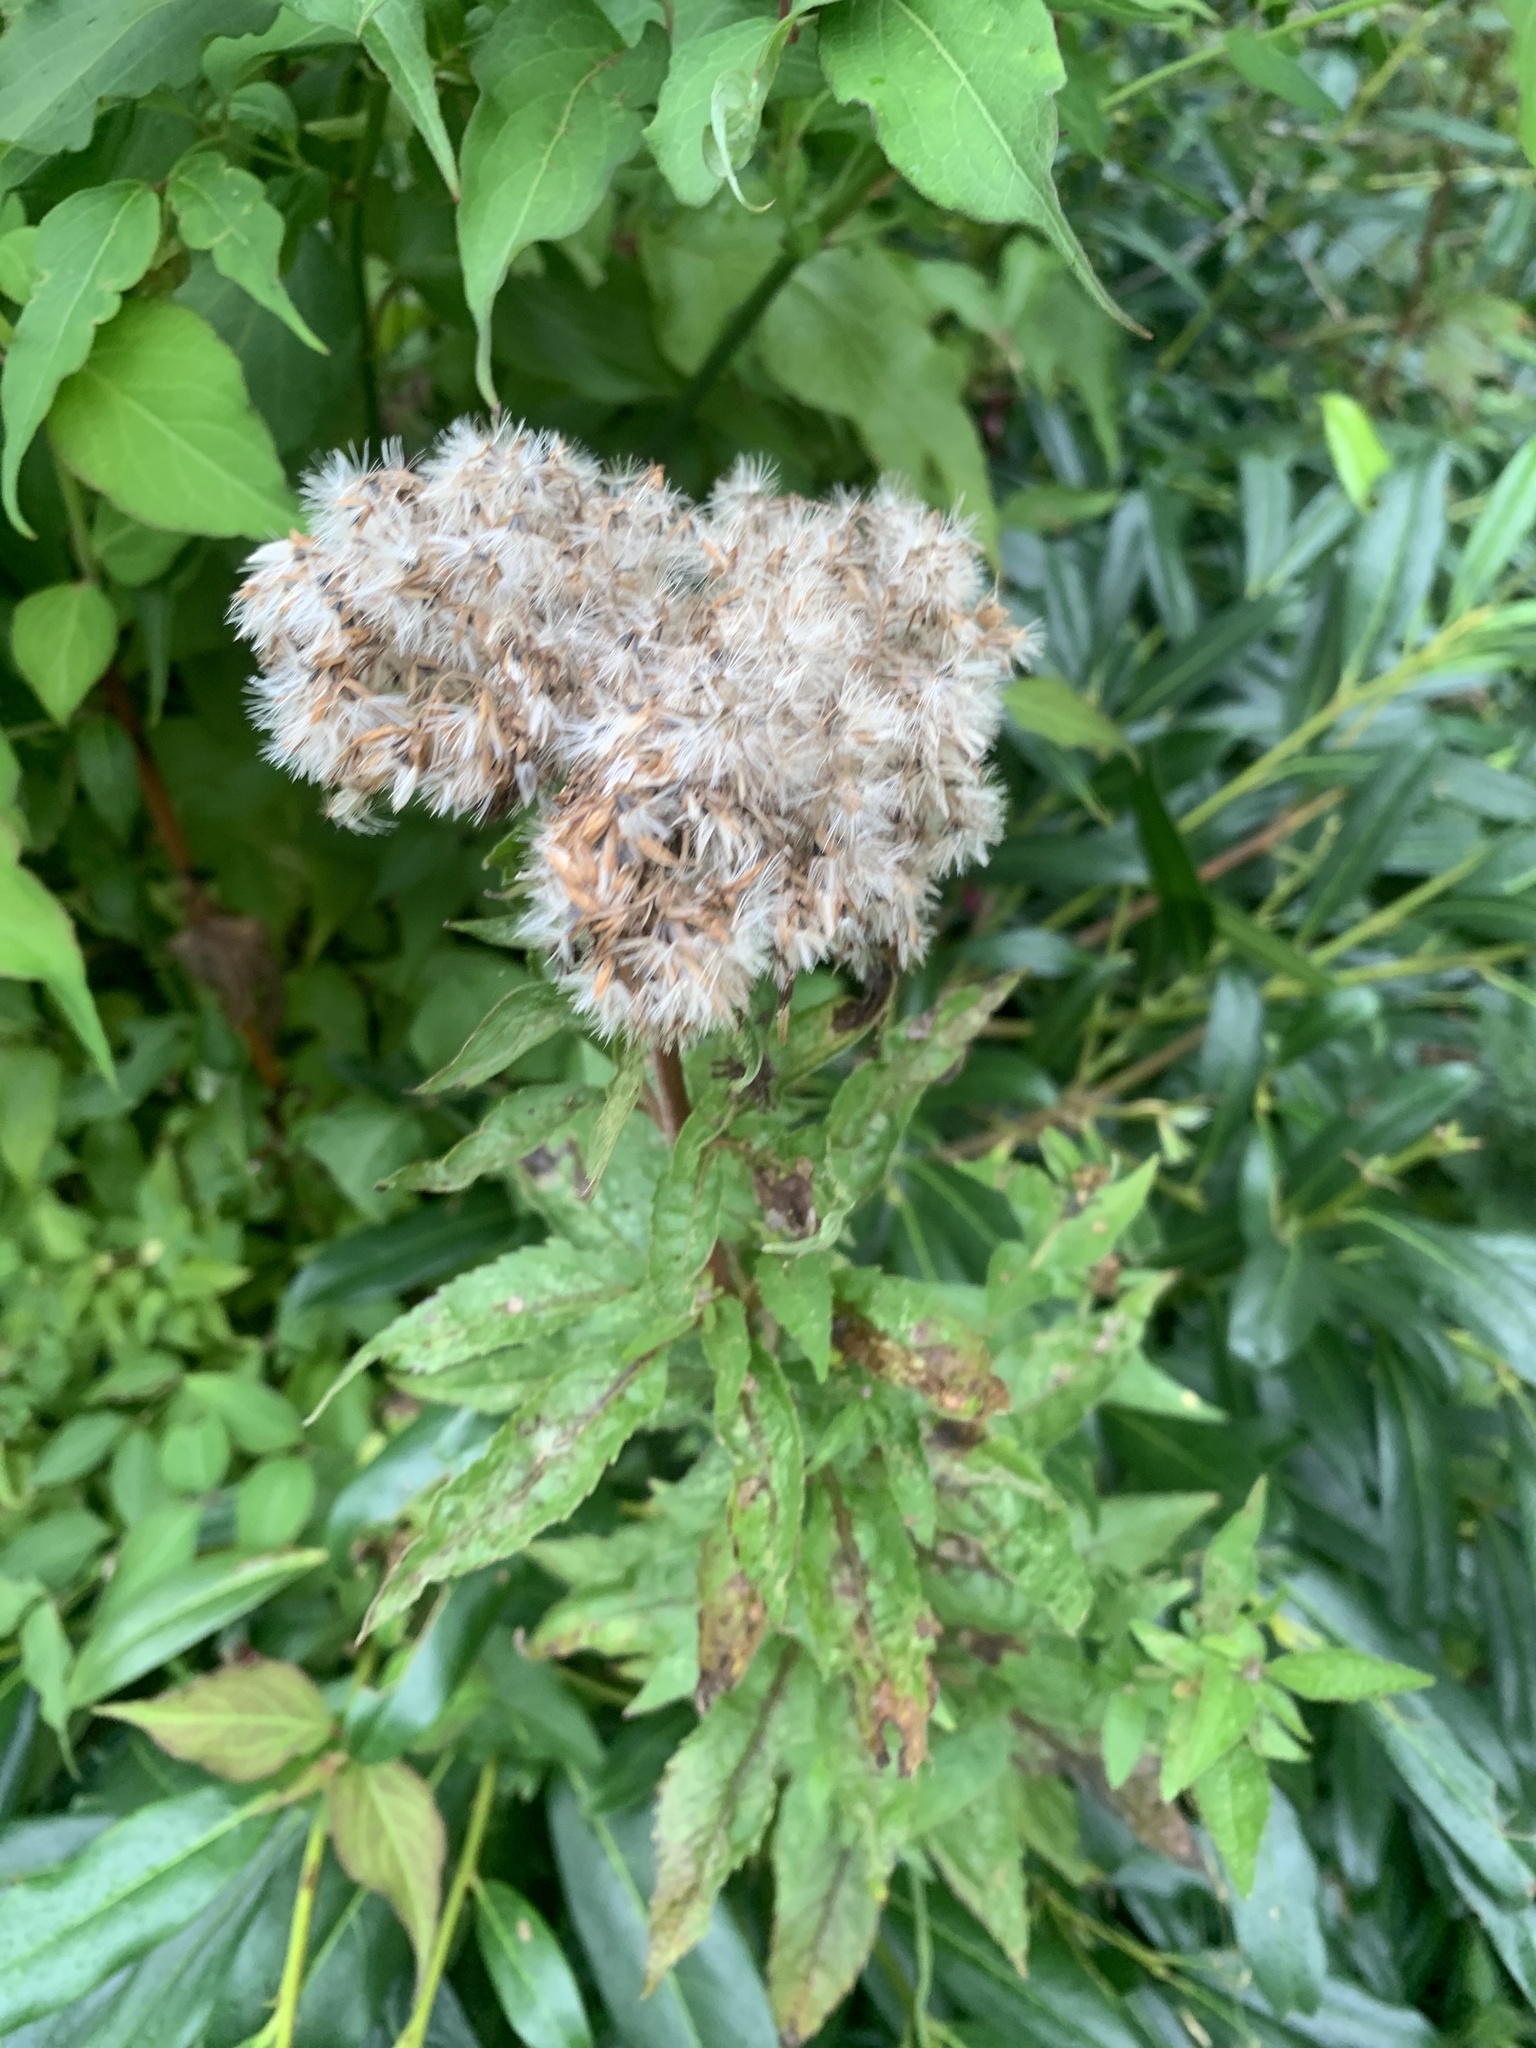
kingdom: Plantae
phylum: Tracheophyta
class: Magnoliopsida
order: Asterales
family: Asteraceae
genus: Eupatorium
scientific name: Eupatorium cannabinum
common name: Hemp-agrimony
